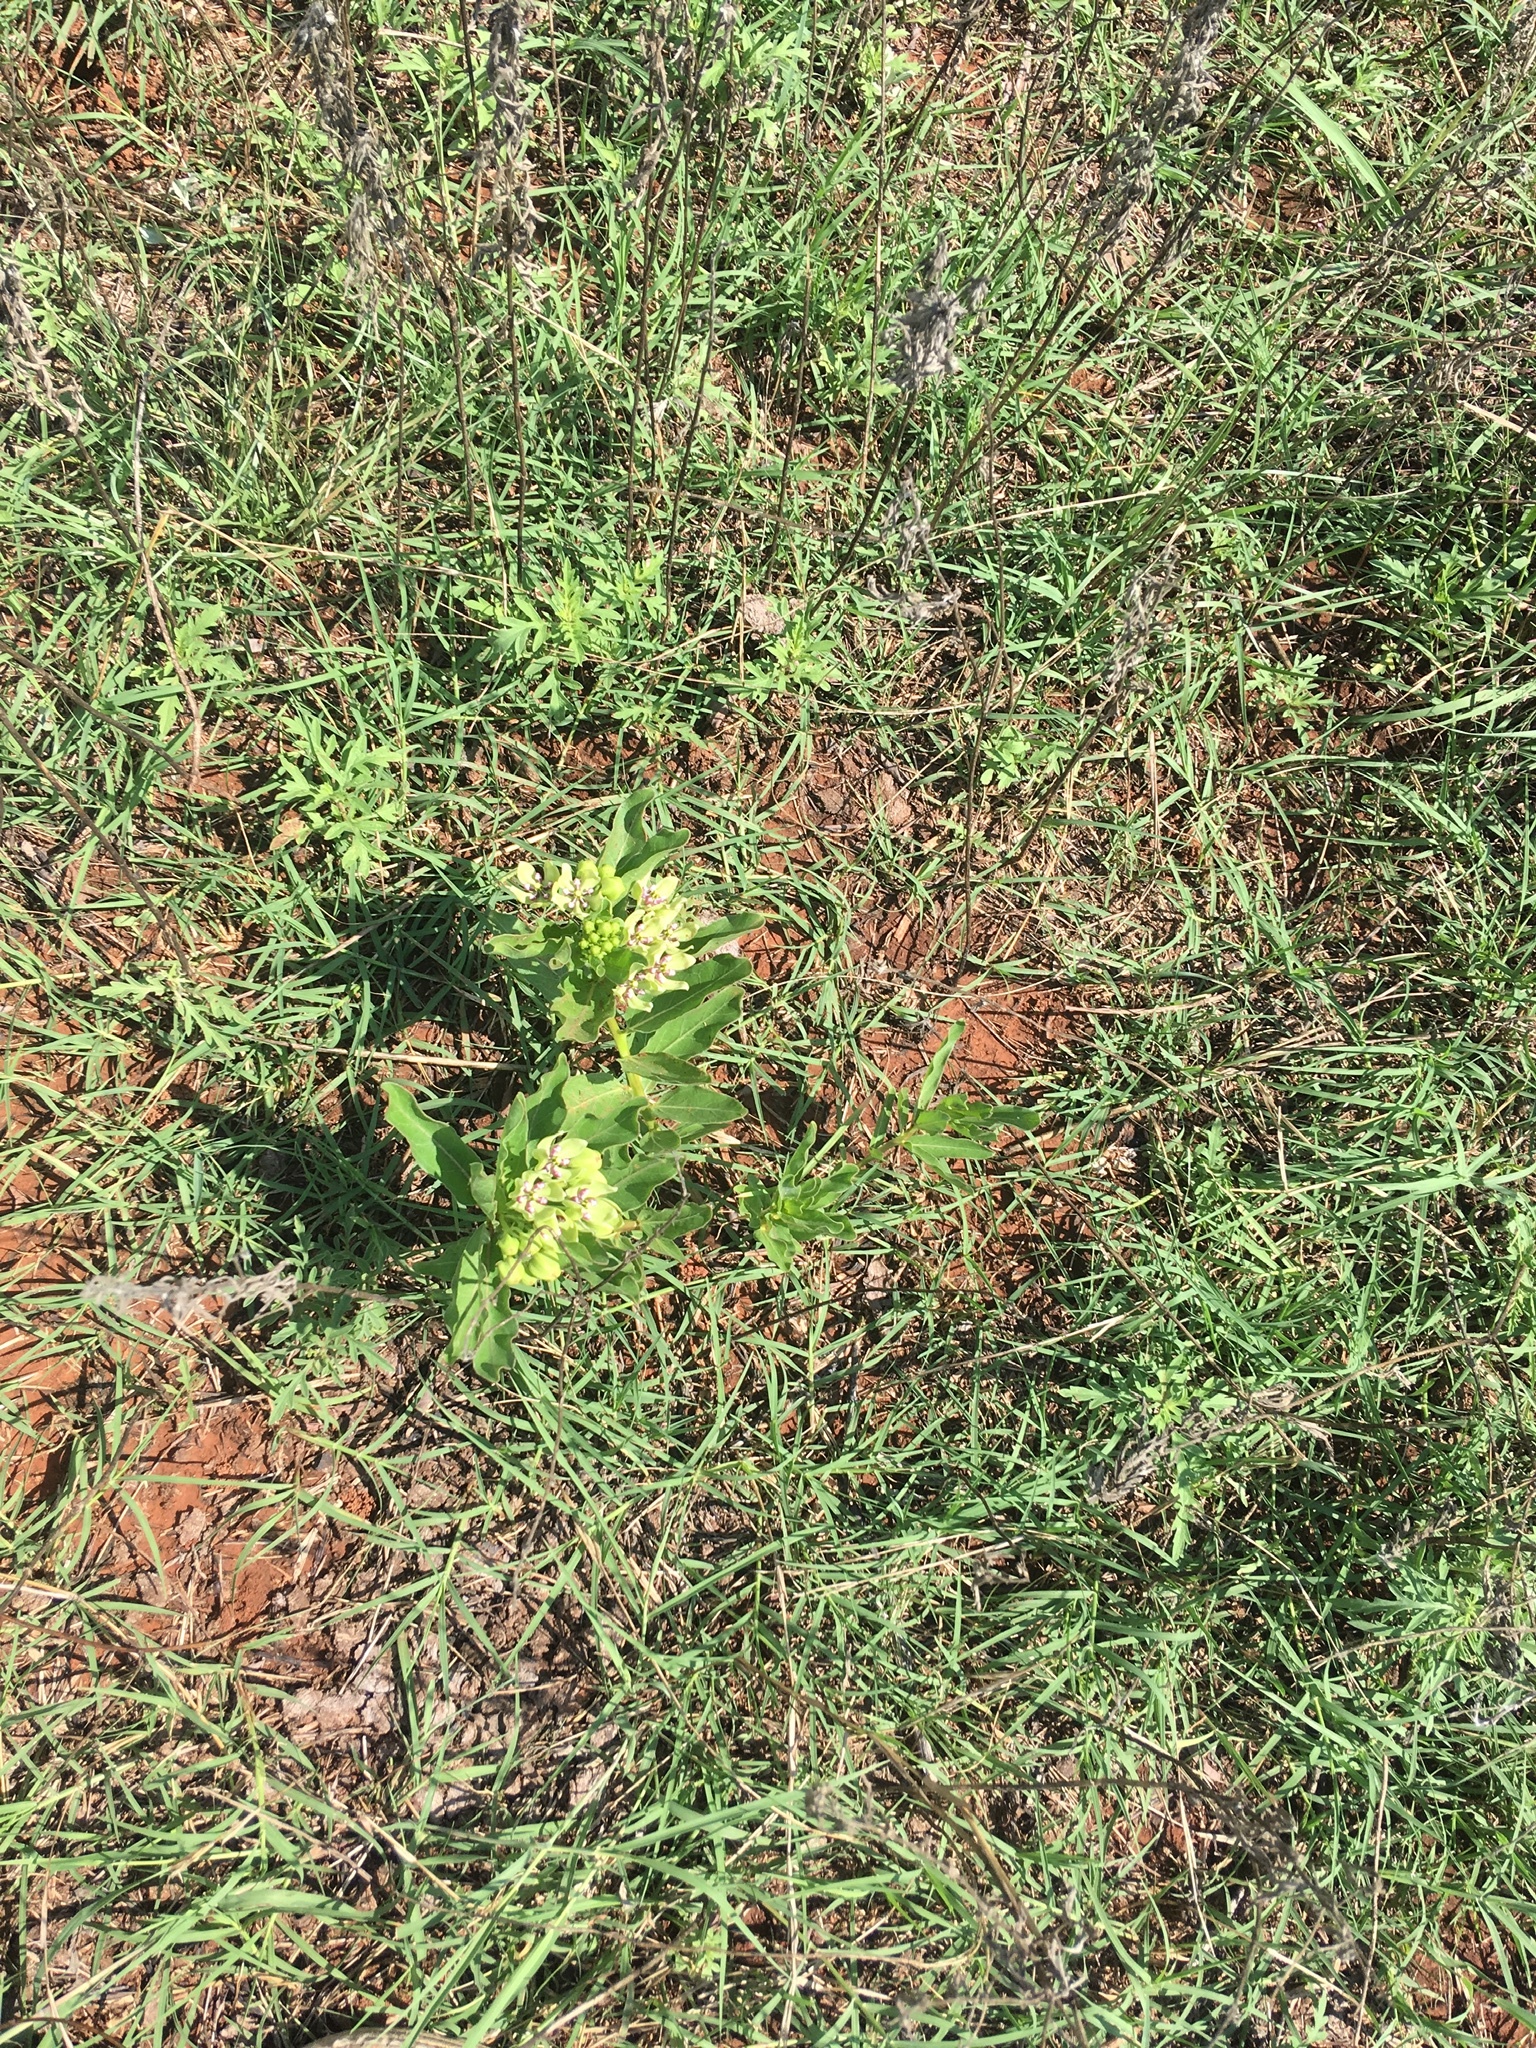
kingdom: Plantae
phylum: Tracheophyta
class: Magnoliopsida
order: Gentianales
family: Apocynaceae
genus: Asclepias
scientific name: Asclepias viridis
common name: Antelope-horns
